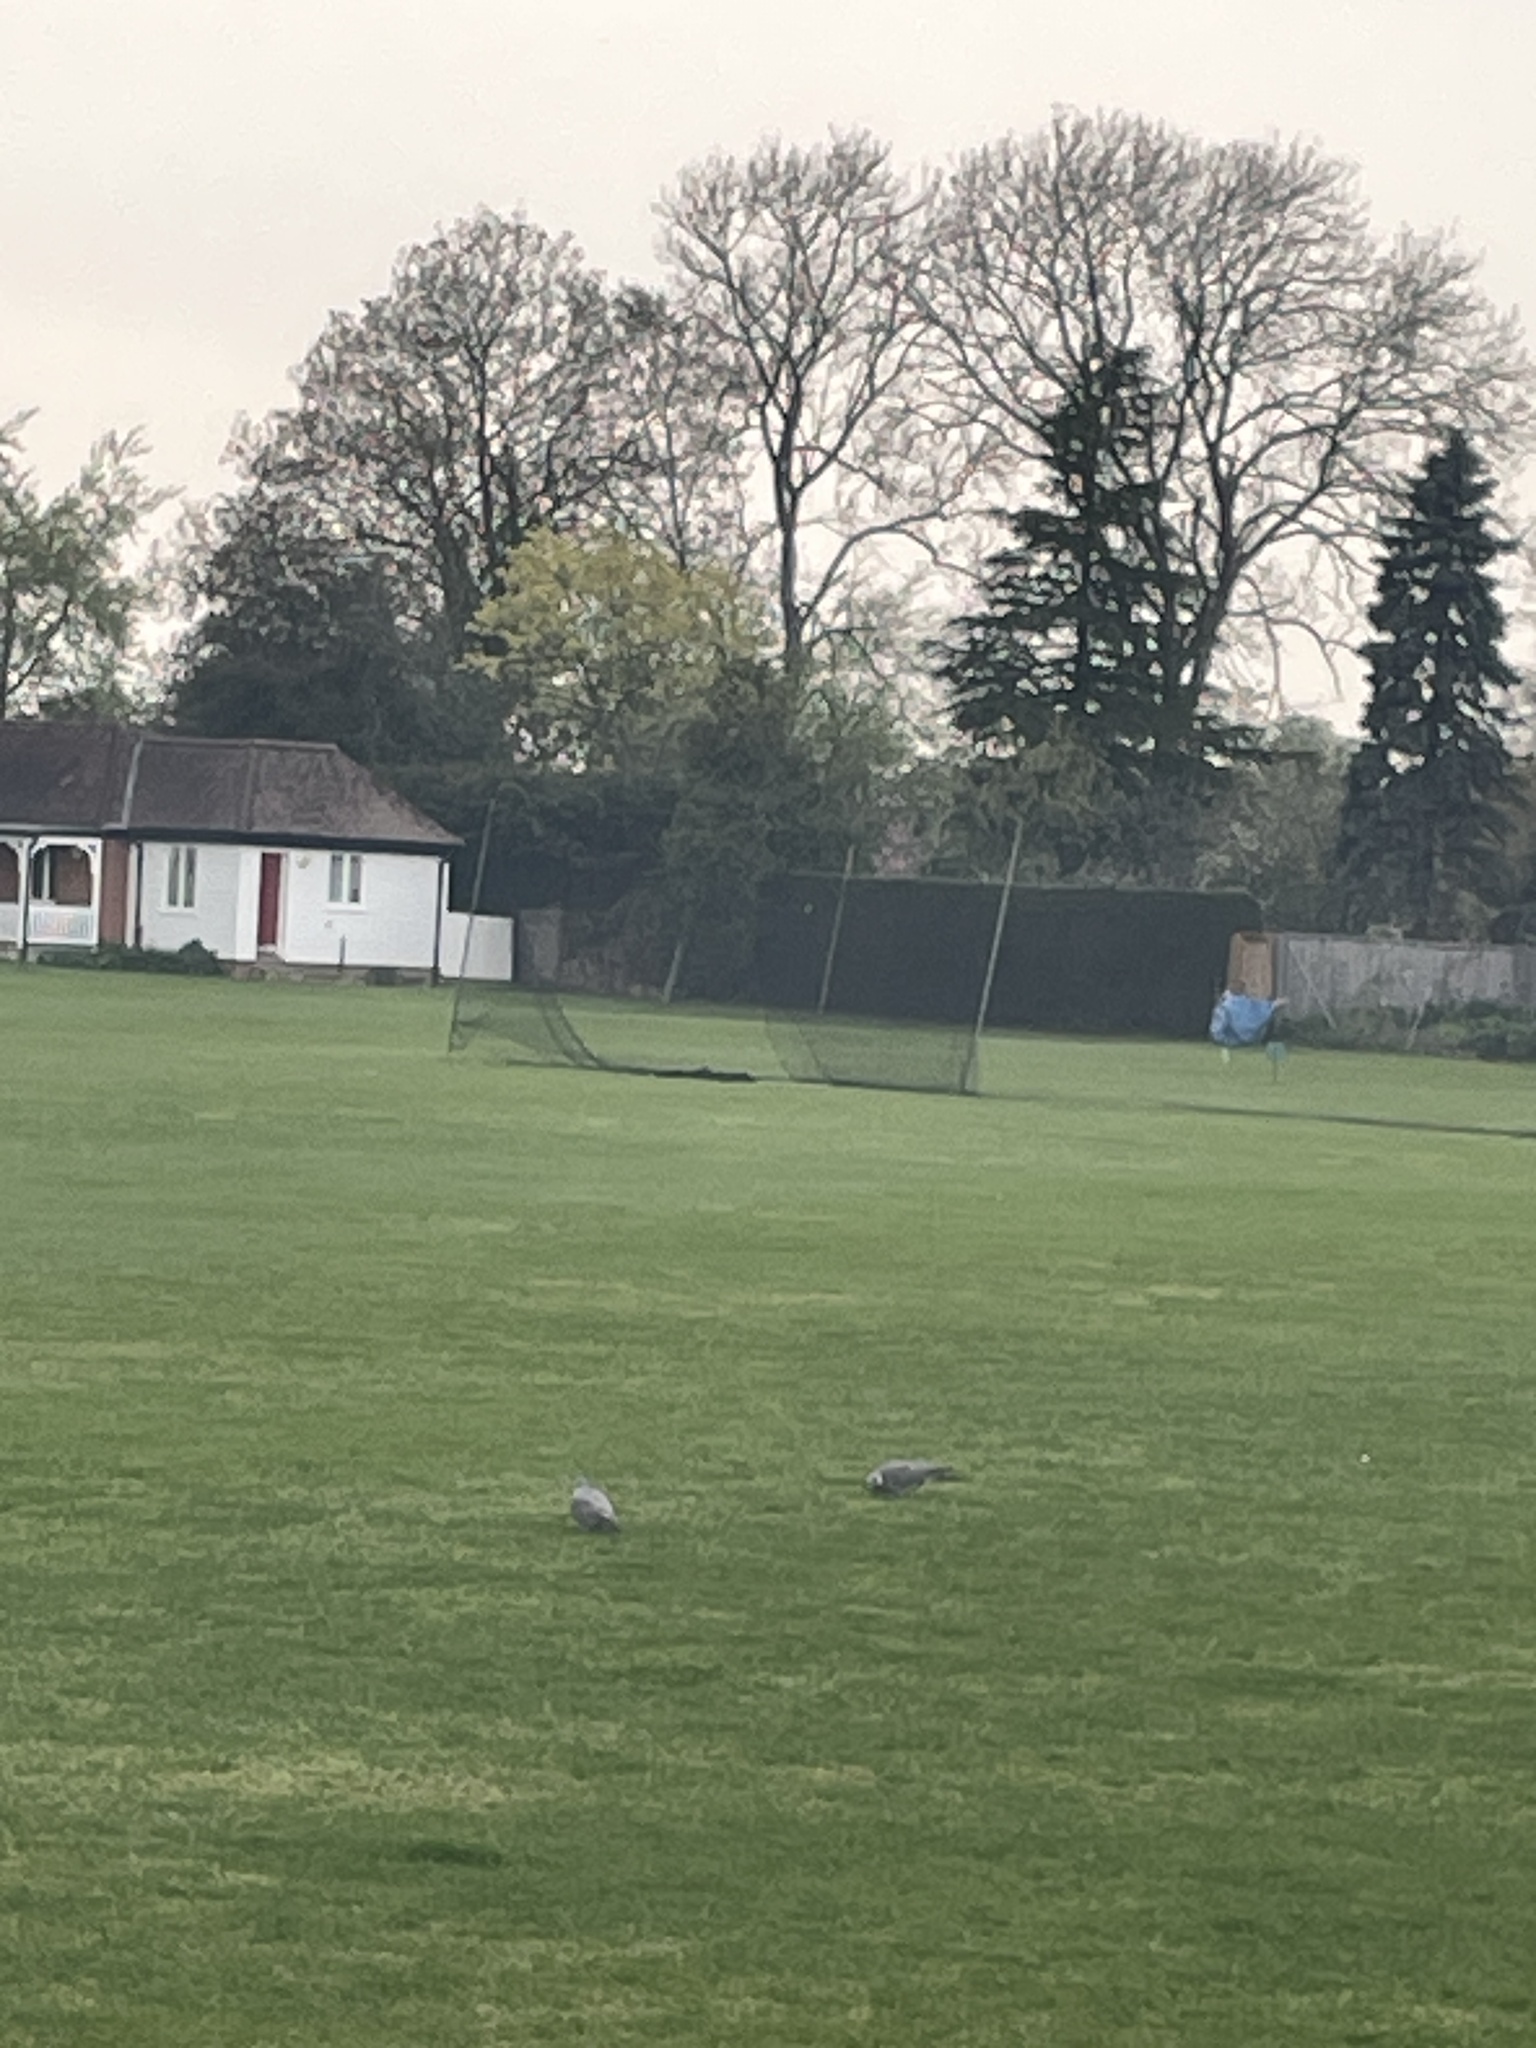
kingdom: Animalia
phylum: Chordata
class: Aves
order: Columbiformes
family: Columbidae
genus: Columba
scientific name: Columba palumbus
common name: Common wood pigeon
